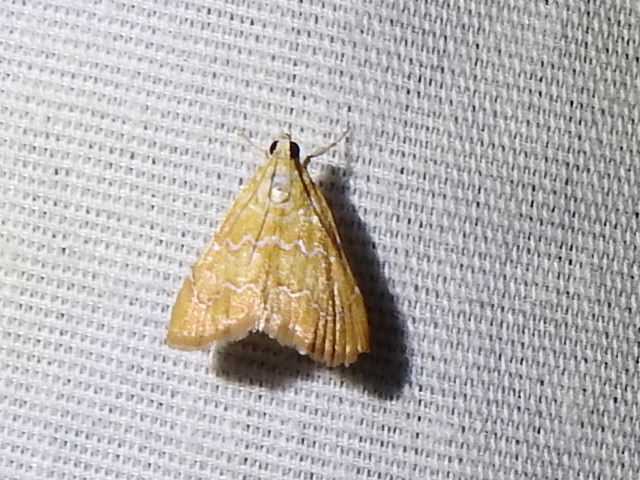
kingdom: Animalia
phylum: Arthropoda
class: Insecta
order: Lepidoptera
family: Crambidae
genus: Glaphyria
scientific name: Glaphyria sesquistrialis
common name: White-roped glaphyria
